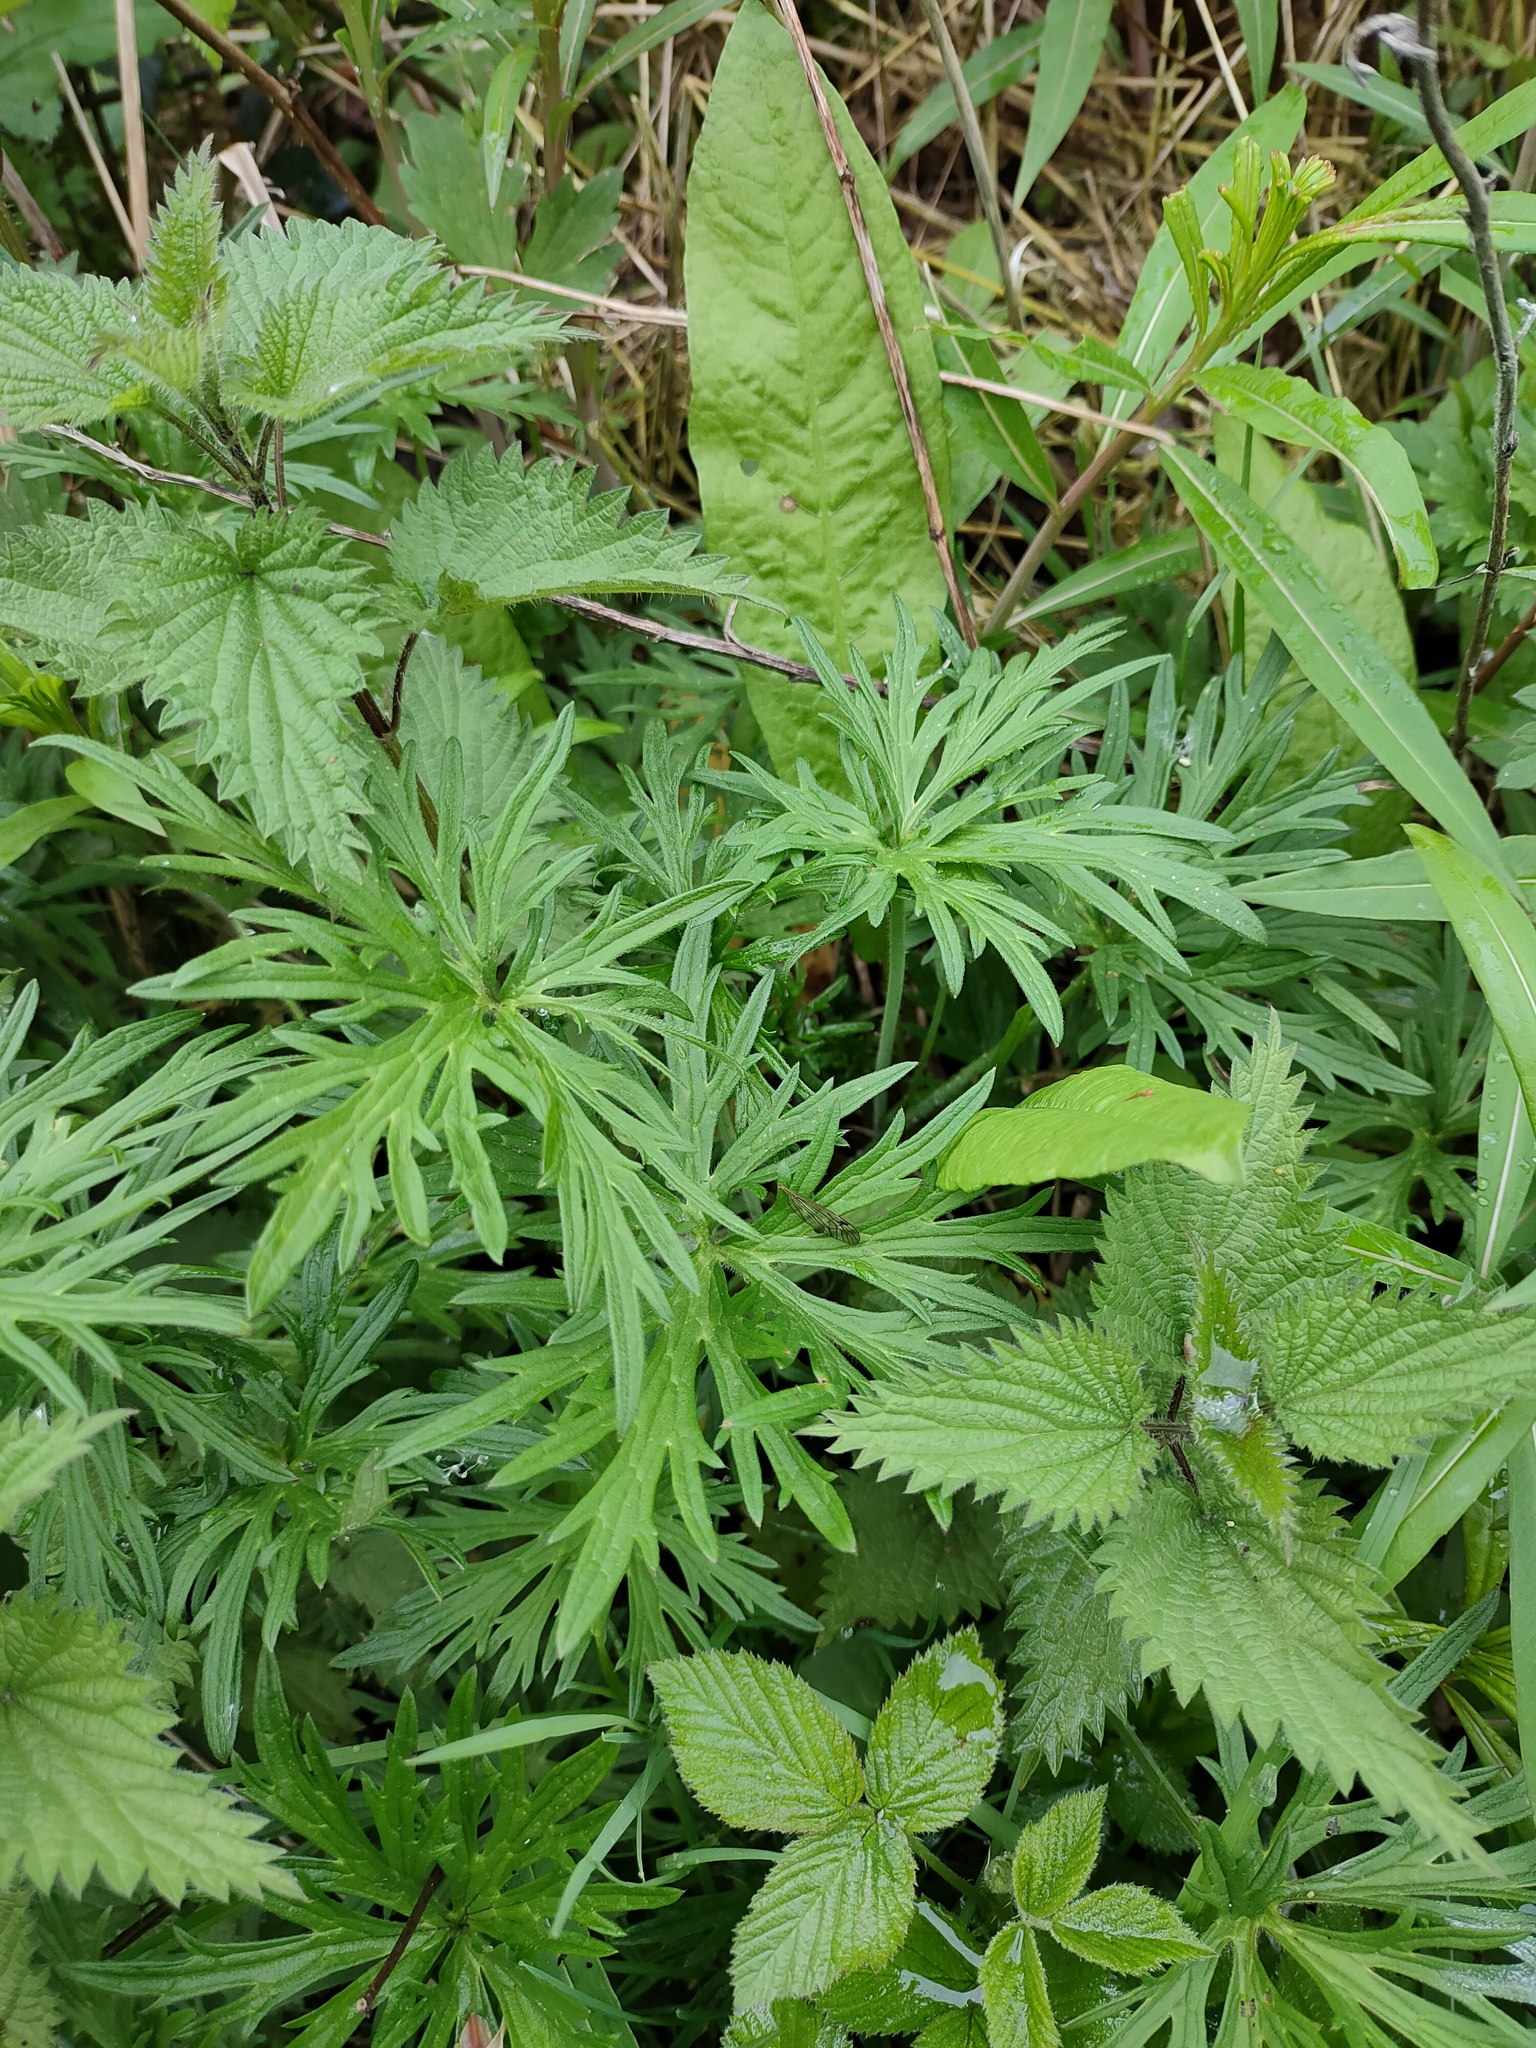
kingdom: Plantae
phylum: Tracheophyta
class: Magnoliopsida
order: Ranunculales
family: Ranunculaceae
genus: Ranunculus
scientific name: Ranunculus acris
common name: Meadow buttercup
